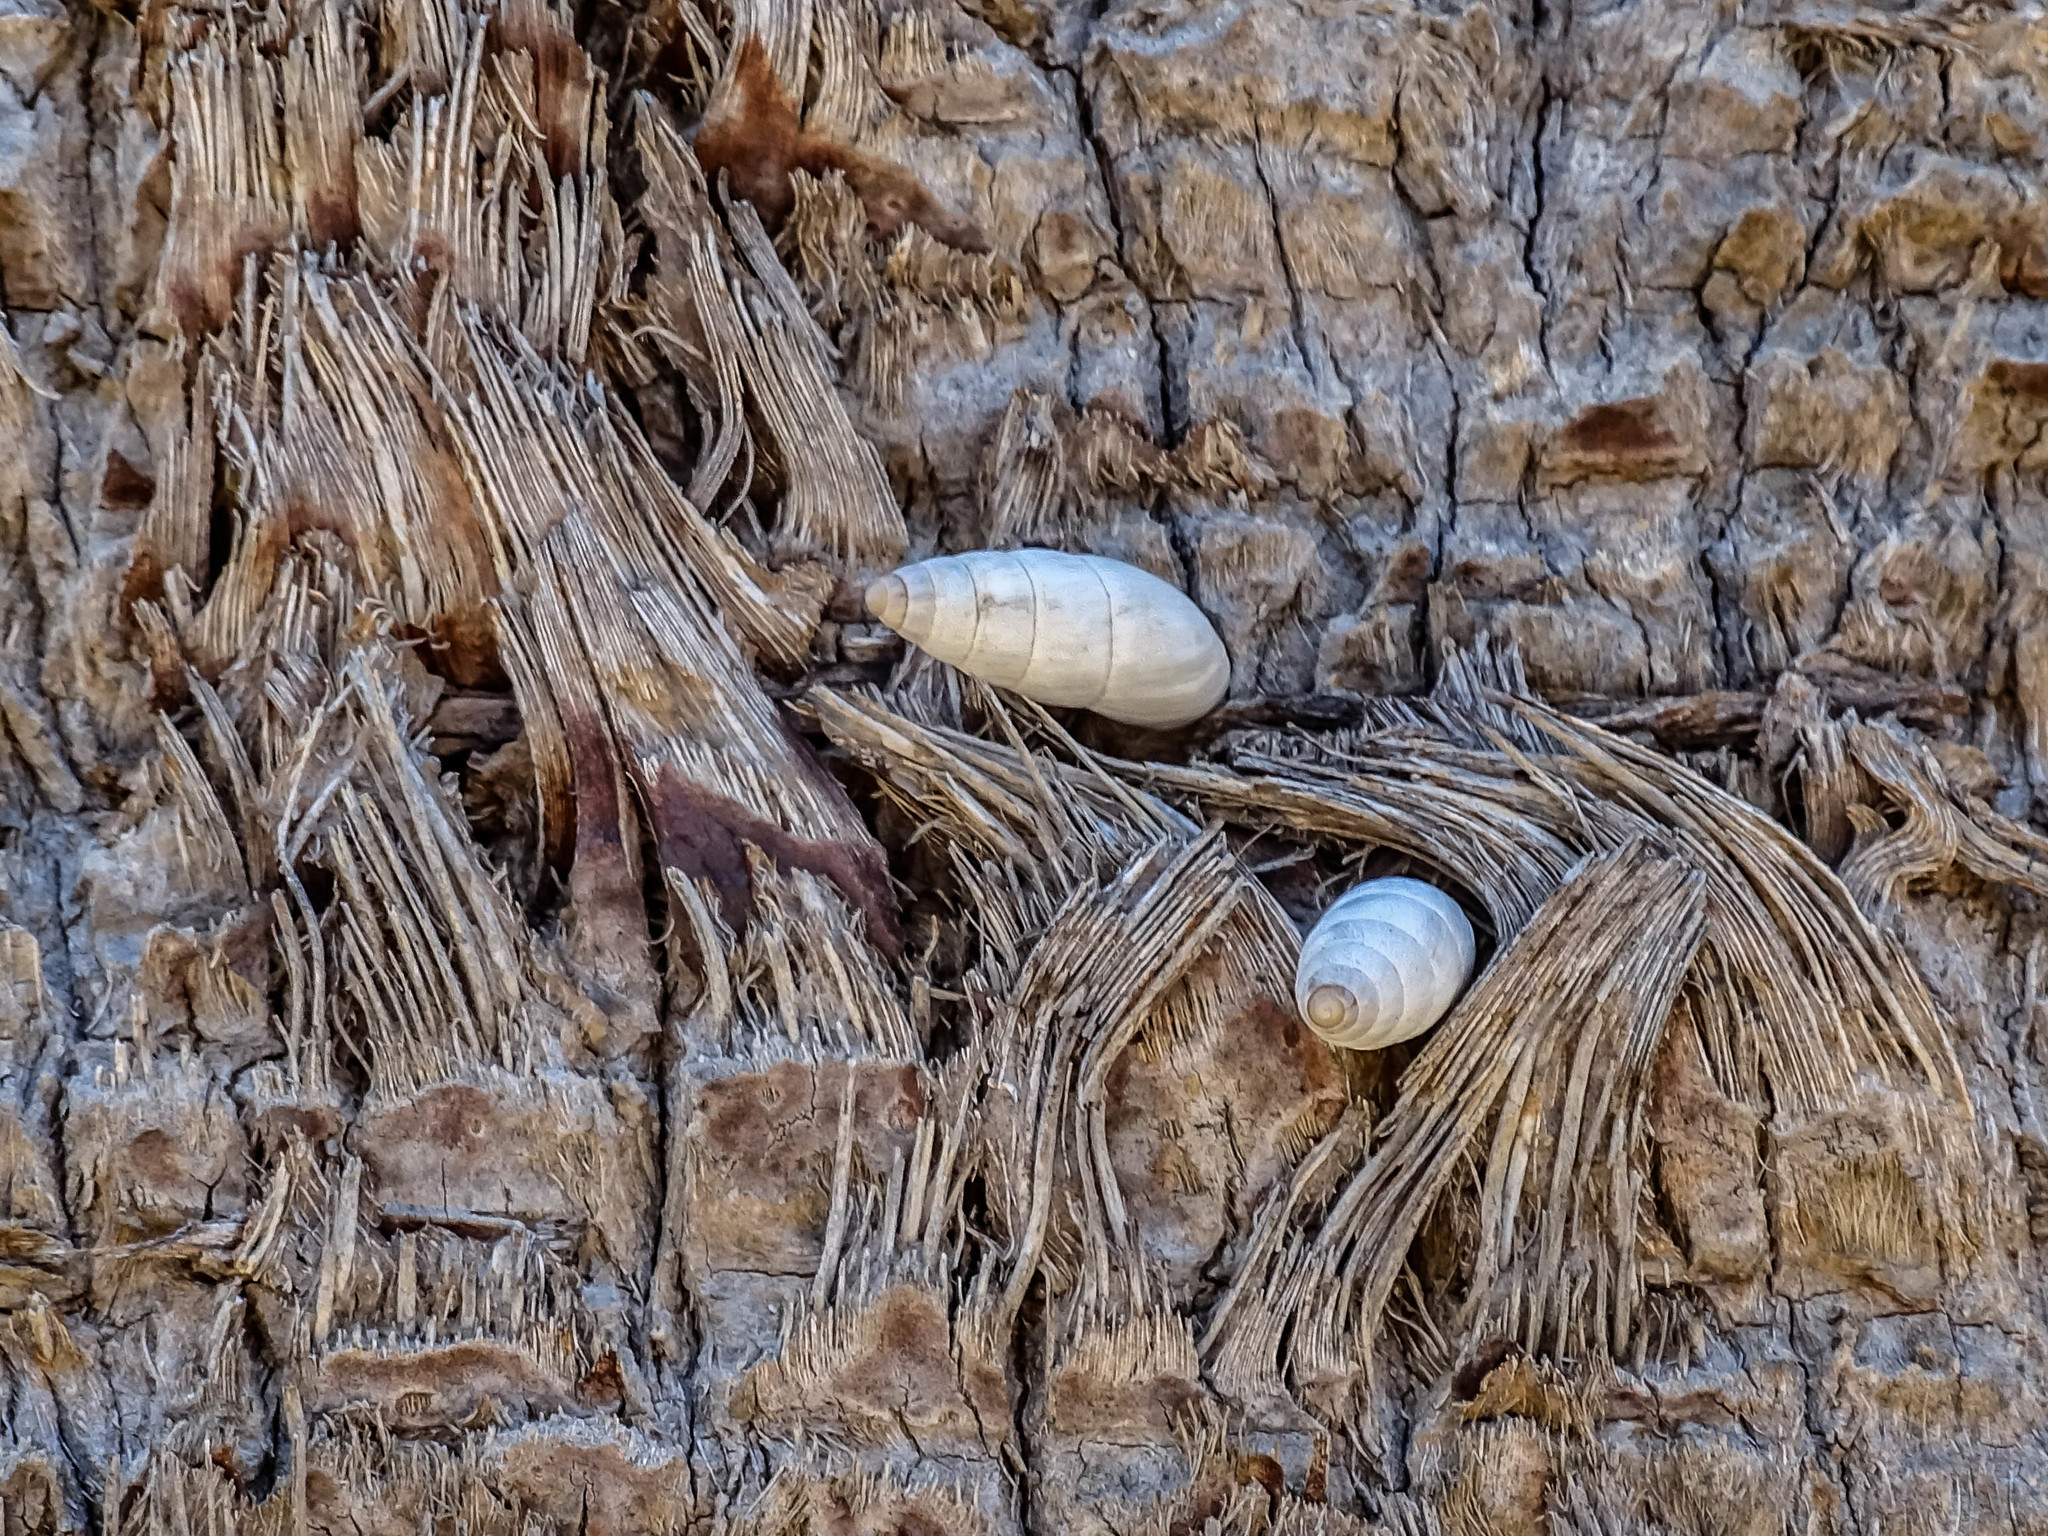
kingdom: Animalia
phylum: Mollusca
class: Gastropoda
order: Stylommatophora
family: Enidae
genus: Zebrina
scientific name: Zebrina fasciolata
